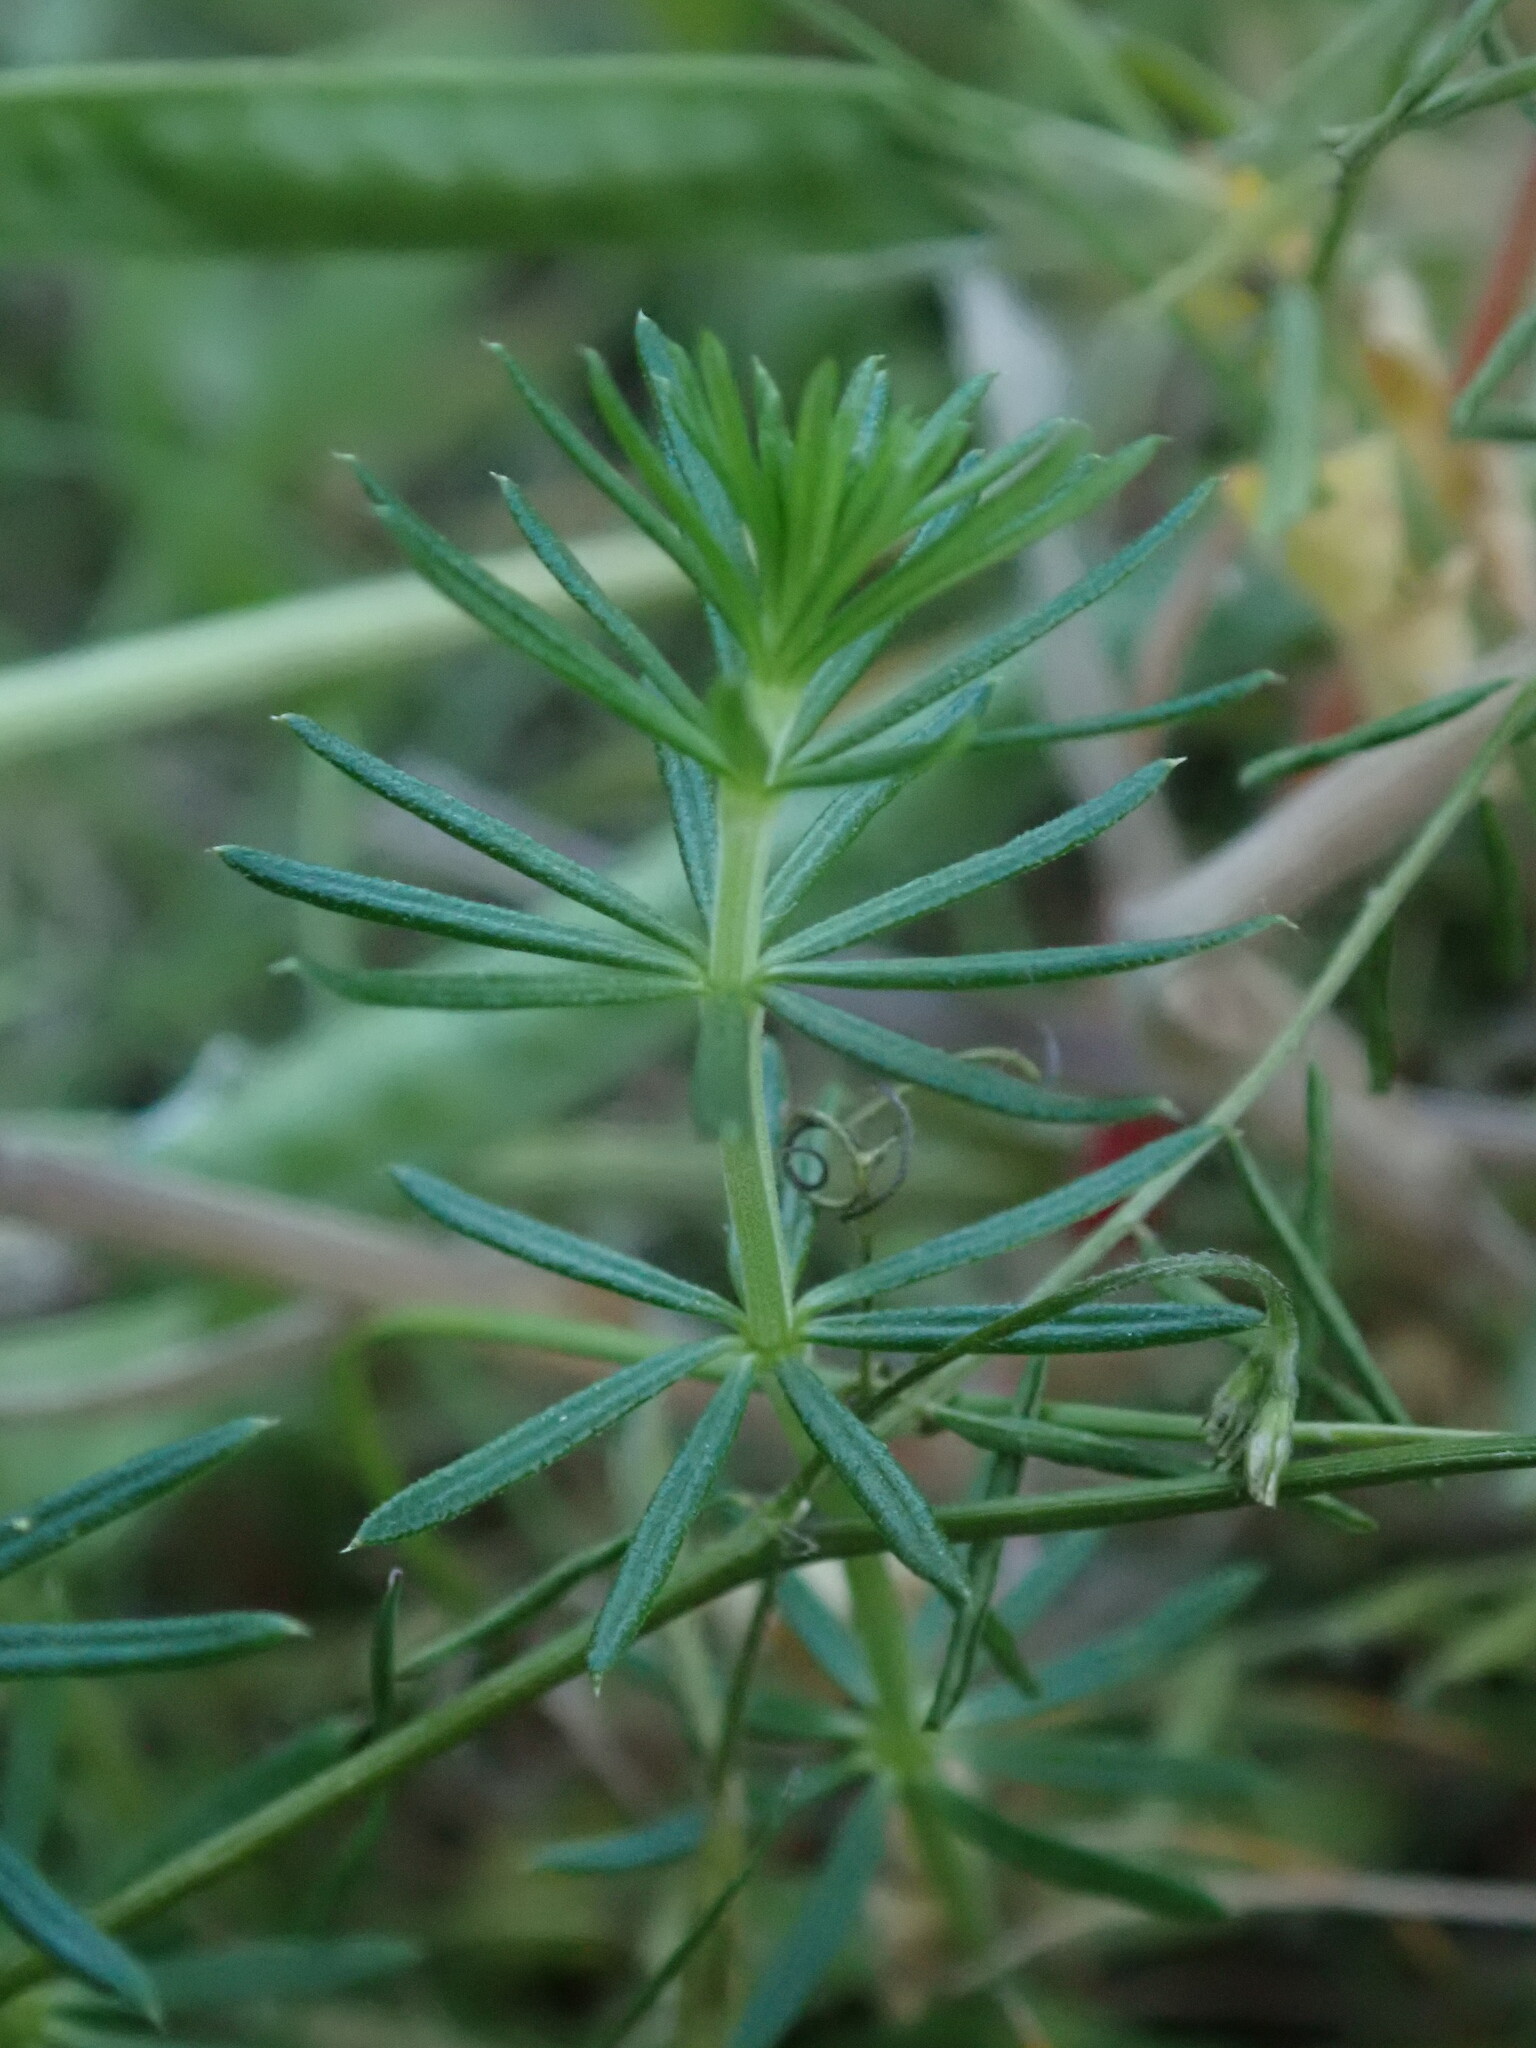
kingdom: Plantae
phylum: Tracheophyta
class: Magnoliopsida
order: Gentianales
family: Rubiaceae
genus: Galium
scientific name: Galium verum
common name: Lady's bedstraw
